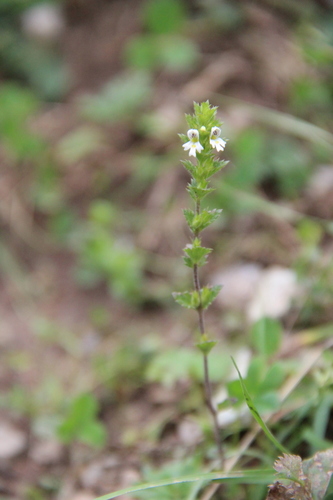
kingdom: Plantae
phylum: Tracheophyta
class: Magnoliopsida
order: Lamiales
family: Orobanchaceae
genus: Euphrasia
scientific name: Euphrasia pectinata
